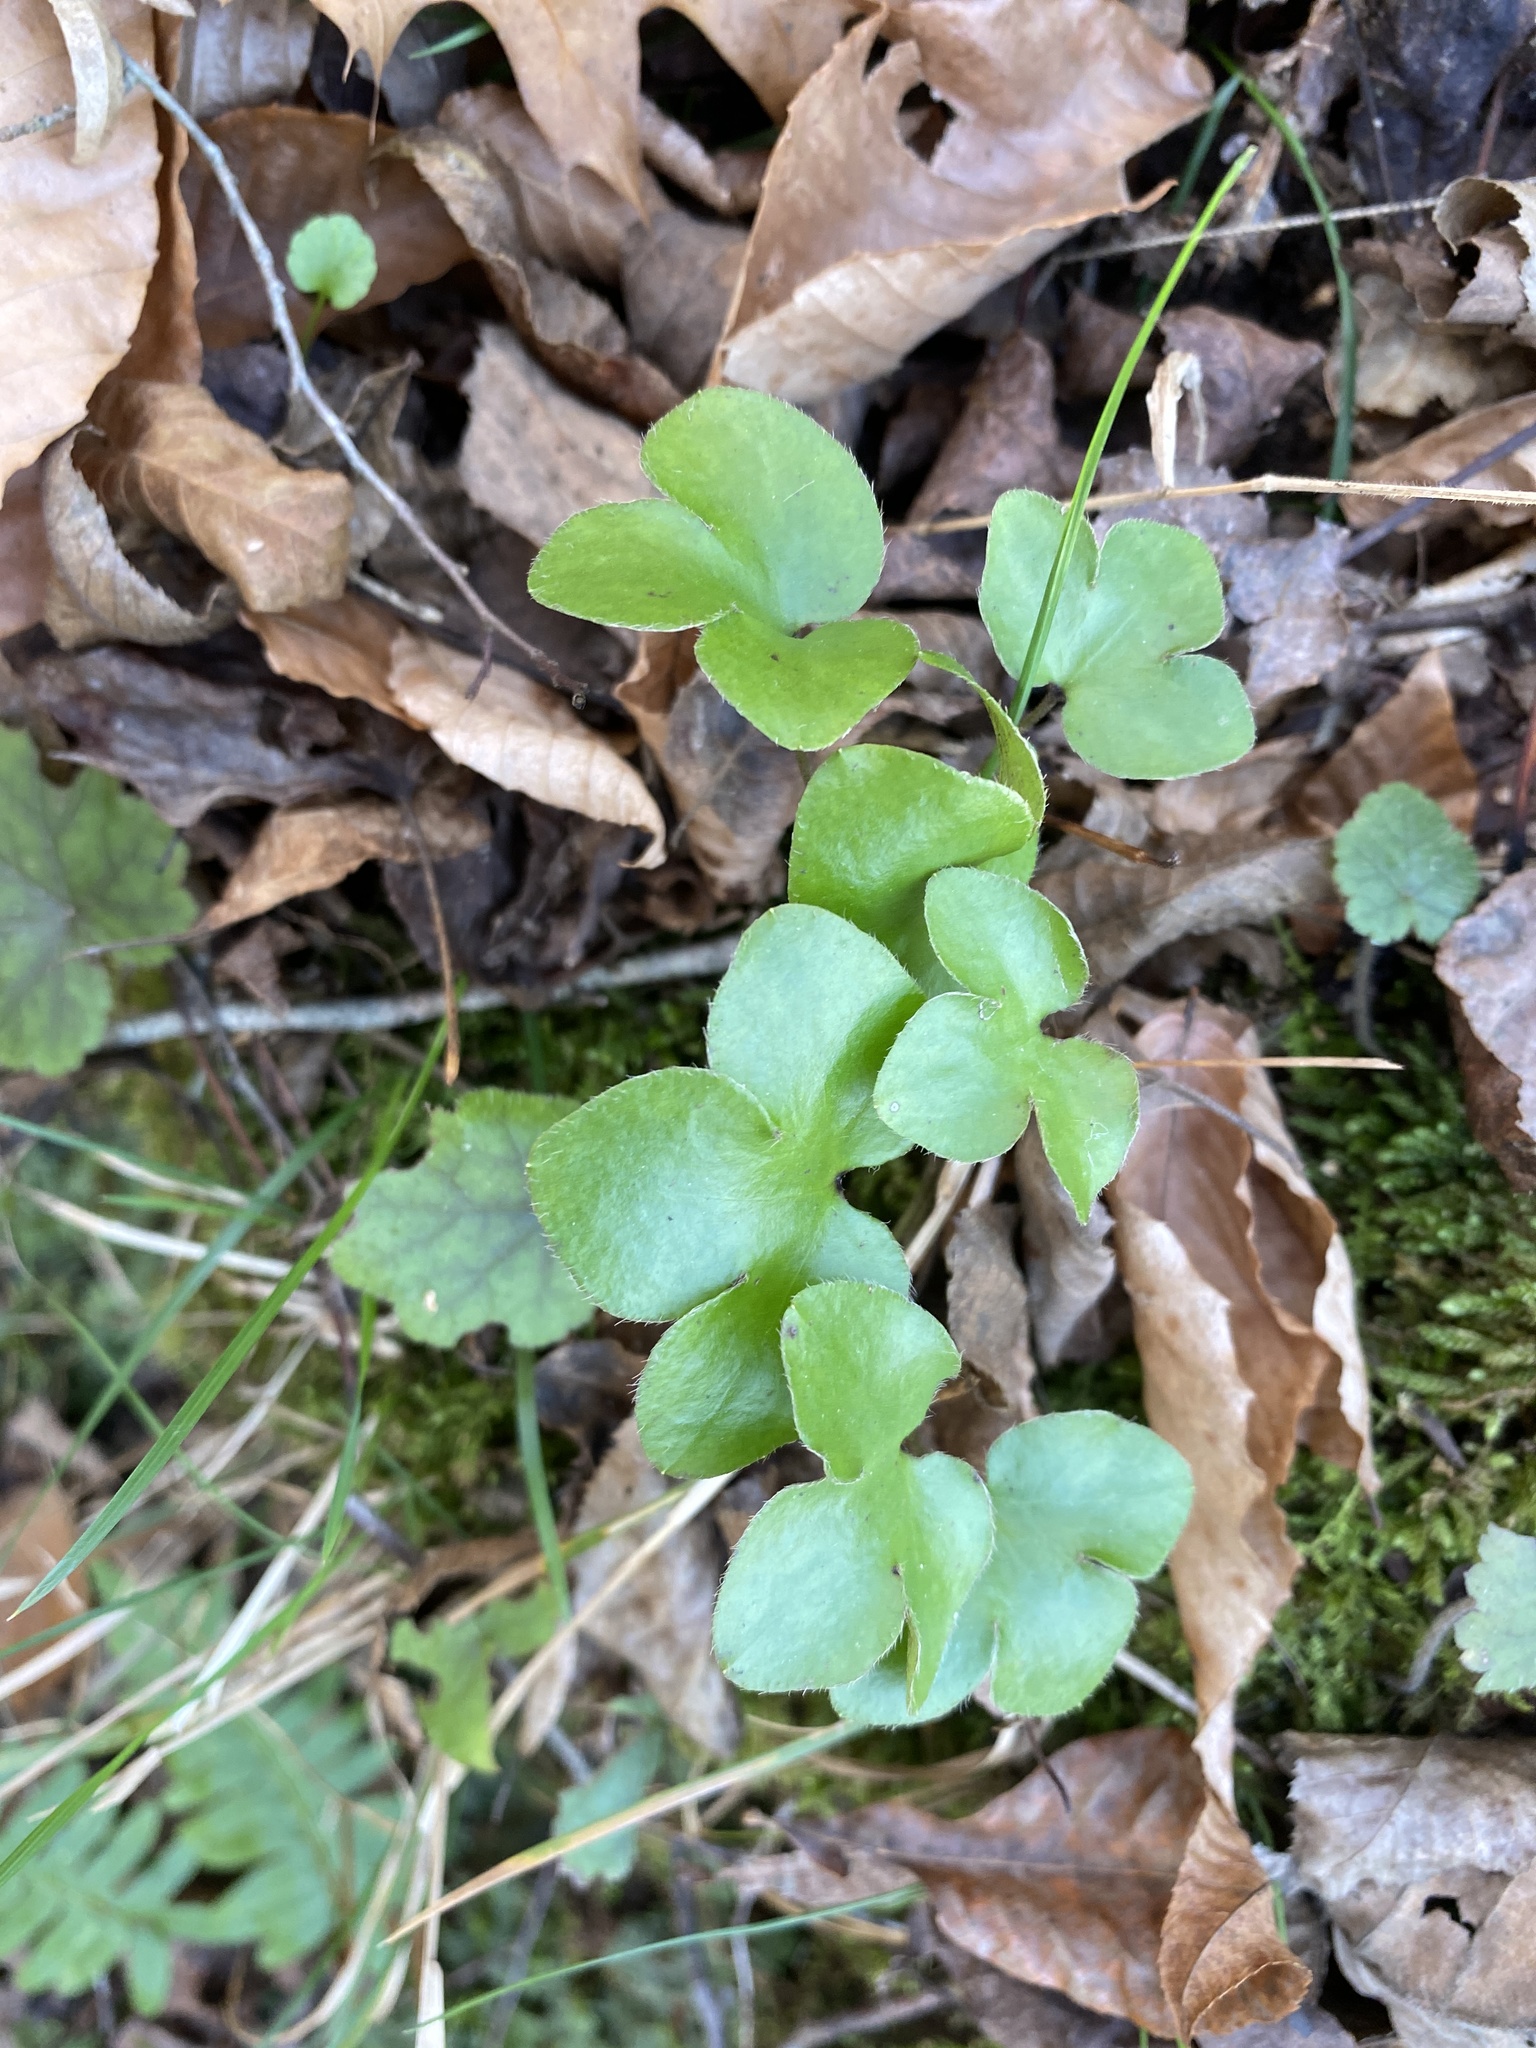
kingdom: Plantae
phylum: Tracheophyta
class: Magnoliopsida
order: Ranunculales
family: Ranunculaceae
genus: Hepatica
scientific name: Hepatica americana
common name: American hepatica
